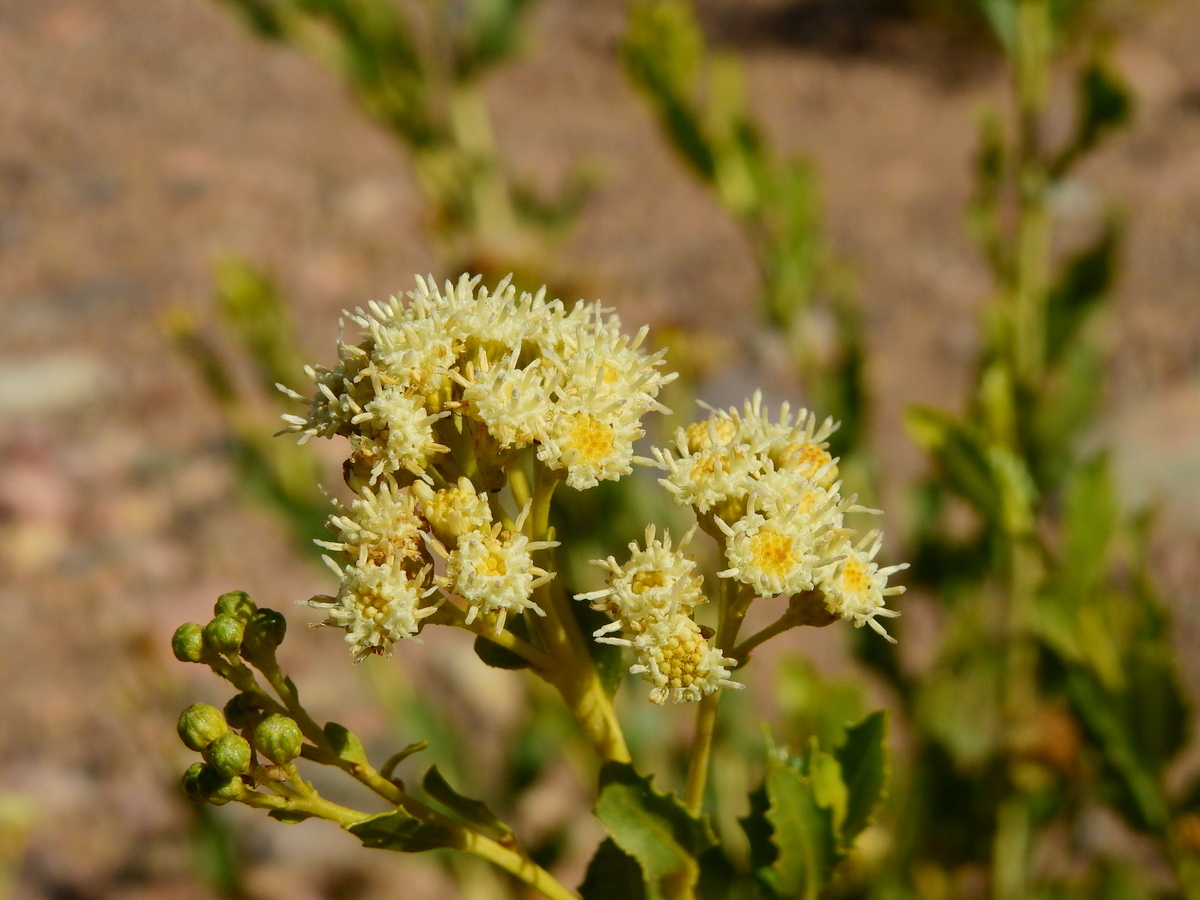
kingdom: Plantae
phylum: Tracheophyta
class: Magnoliopsida
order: Asterales
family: Asteraceae
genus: Baccharis
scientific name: Baccharis scandens
